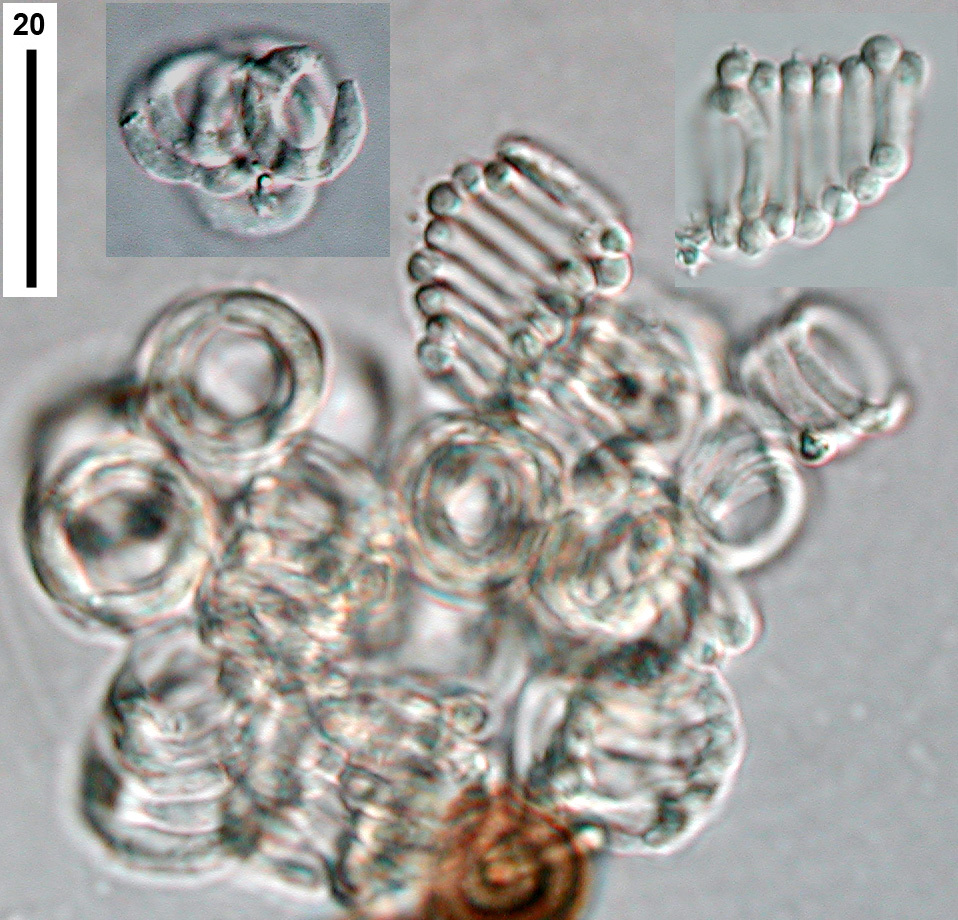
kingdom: Fungi
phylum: Ascomycota
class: Leotiomycetes
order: Helotiales
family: Rutstroemiaceae
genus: Lambertella
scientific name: Lambertella tubulosa
